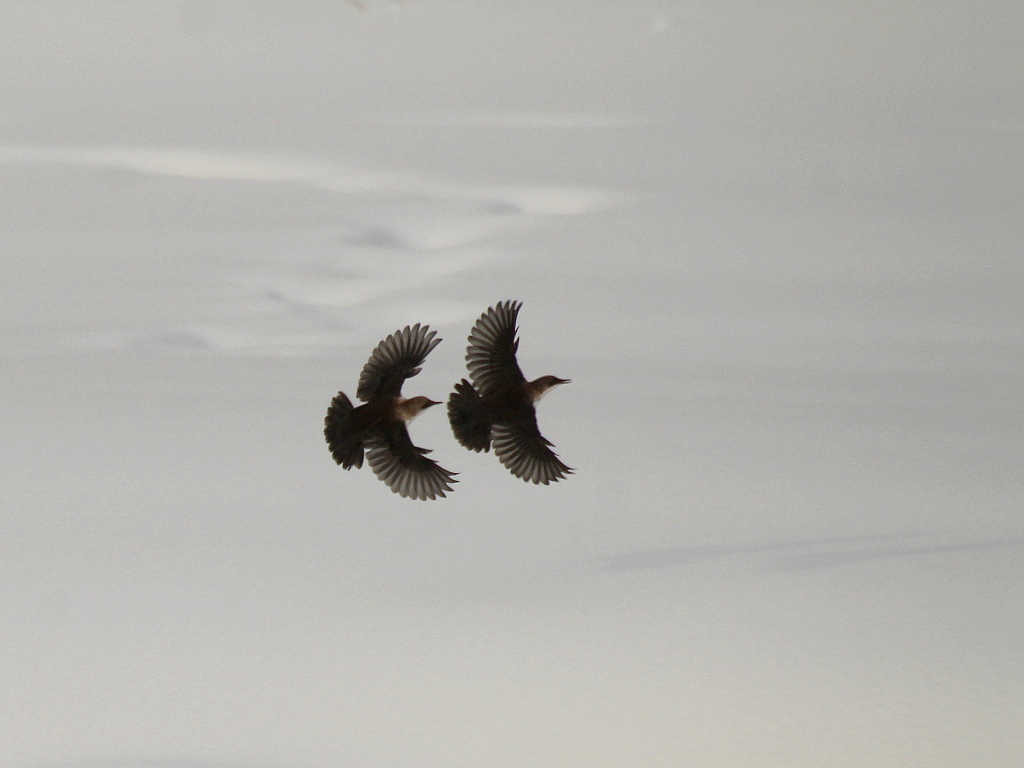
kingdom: Animalia
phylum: Chordata
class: Aves
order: Passeriformes
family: Cinclidae
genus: Cinclus
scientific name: Cinclus cinclus
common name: White-throated dipper
